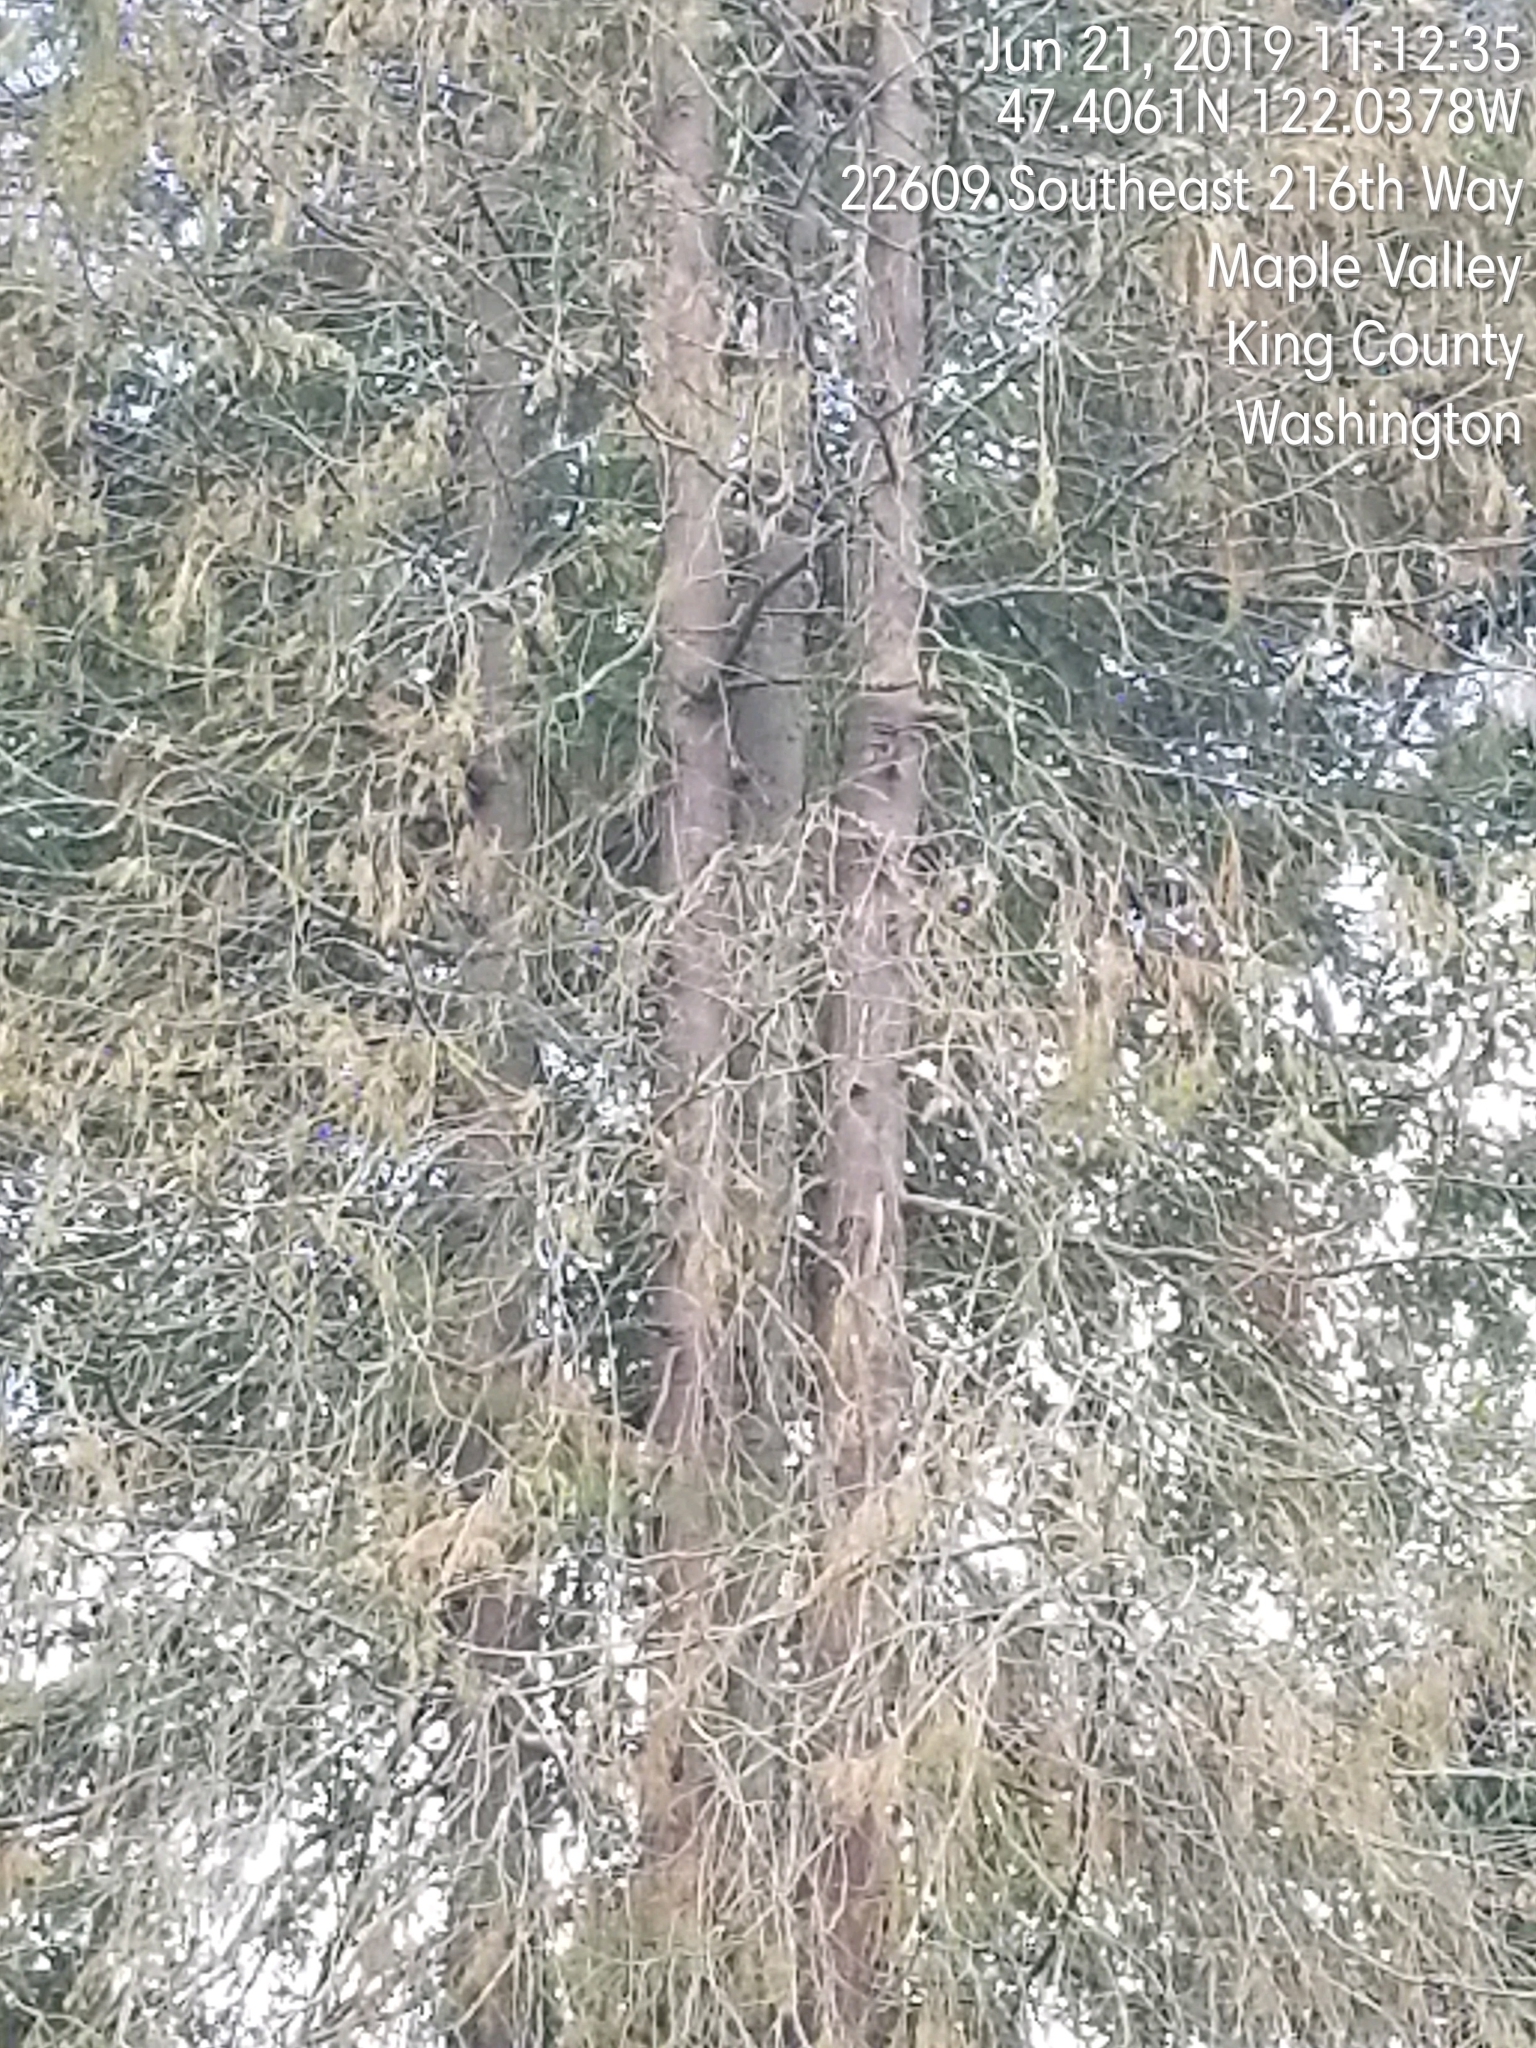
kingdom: Plantae
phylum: Tracheophyta
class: Pinopsida
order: Pinales
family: Cupressaceae
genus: Thuja
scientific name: Thuja plicata
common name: Western red-cedar
